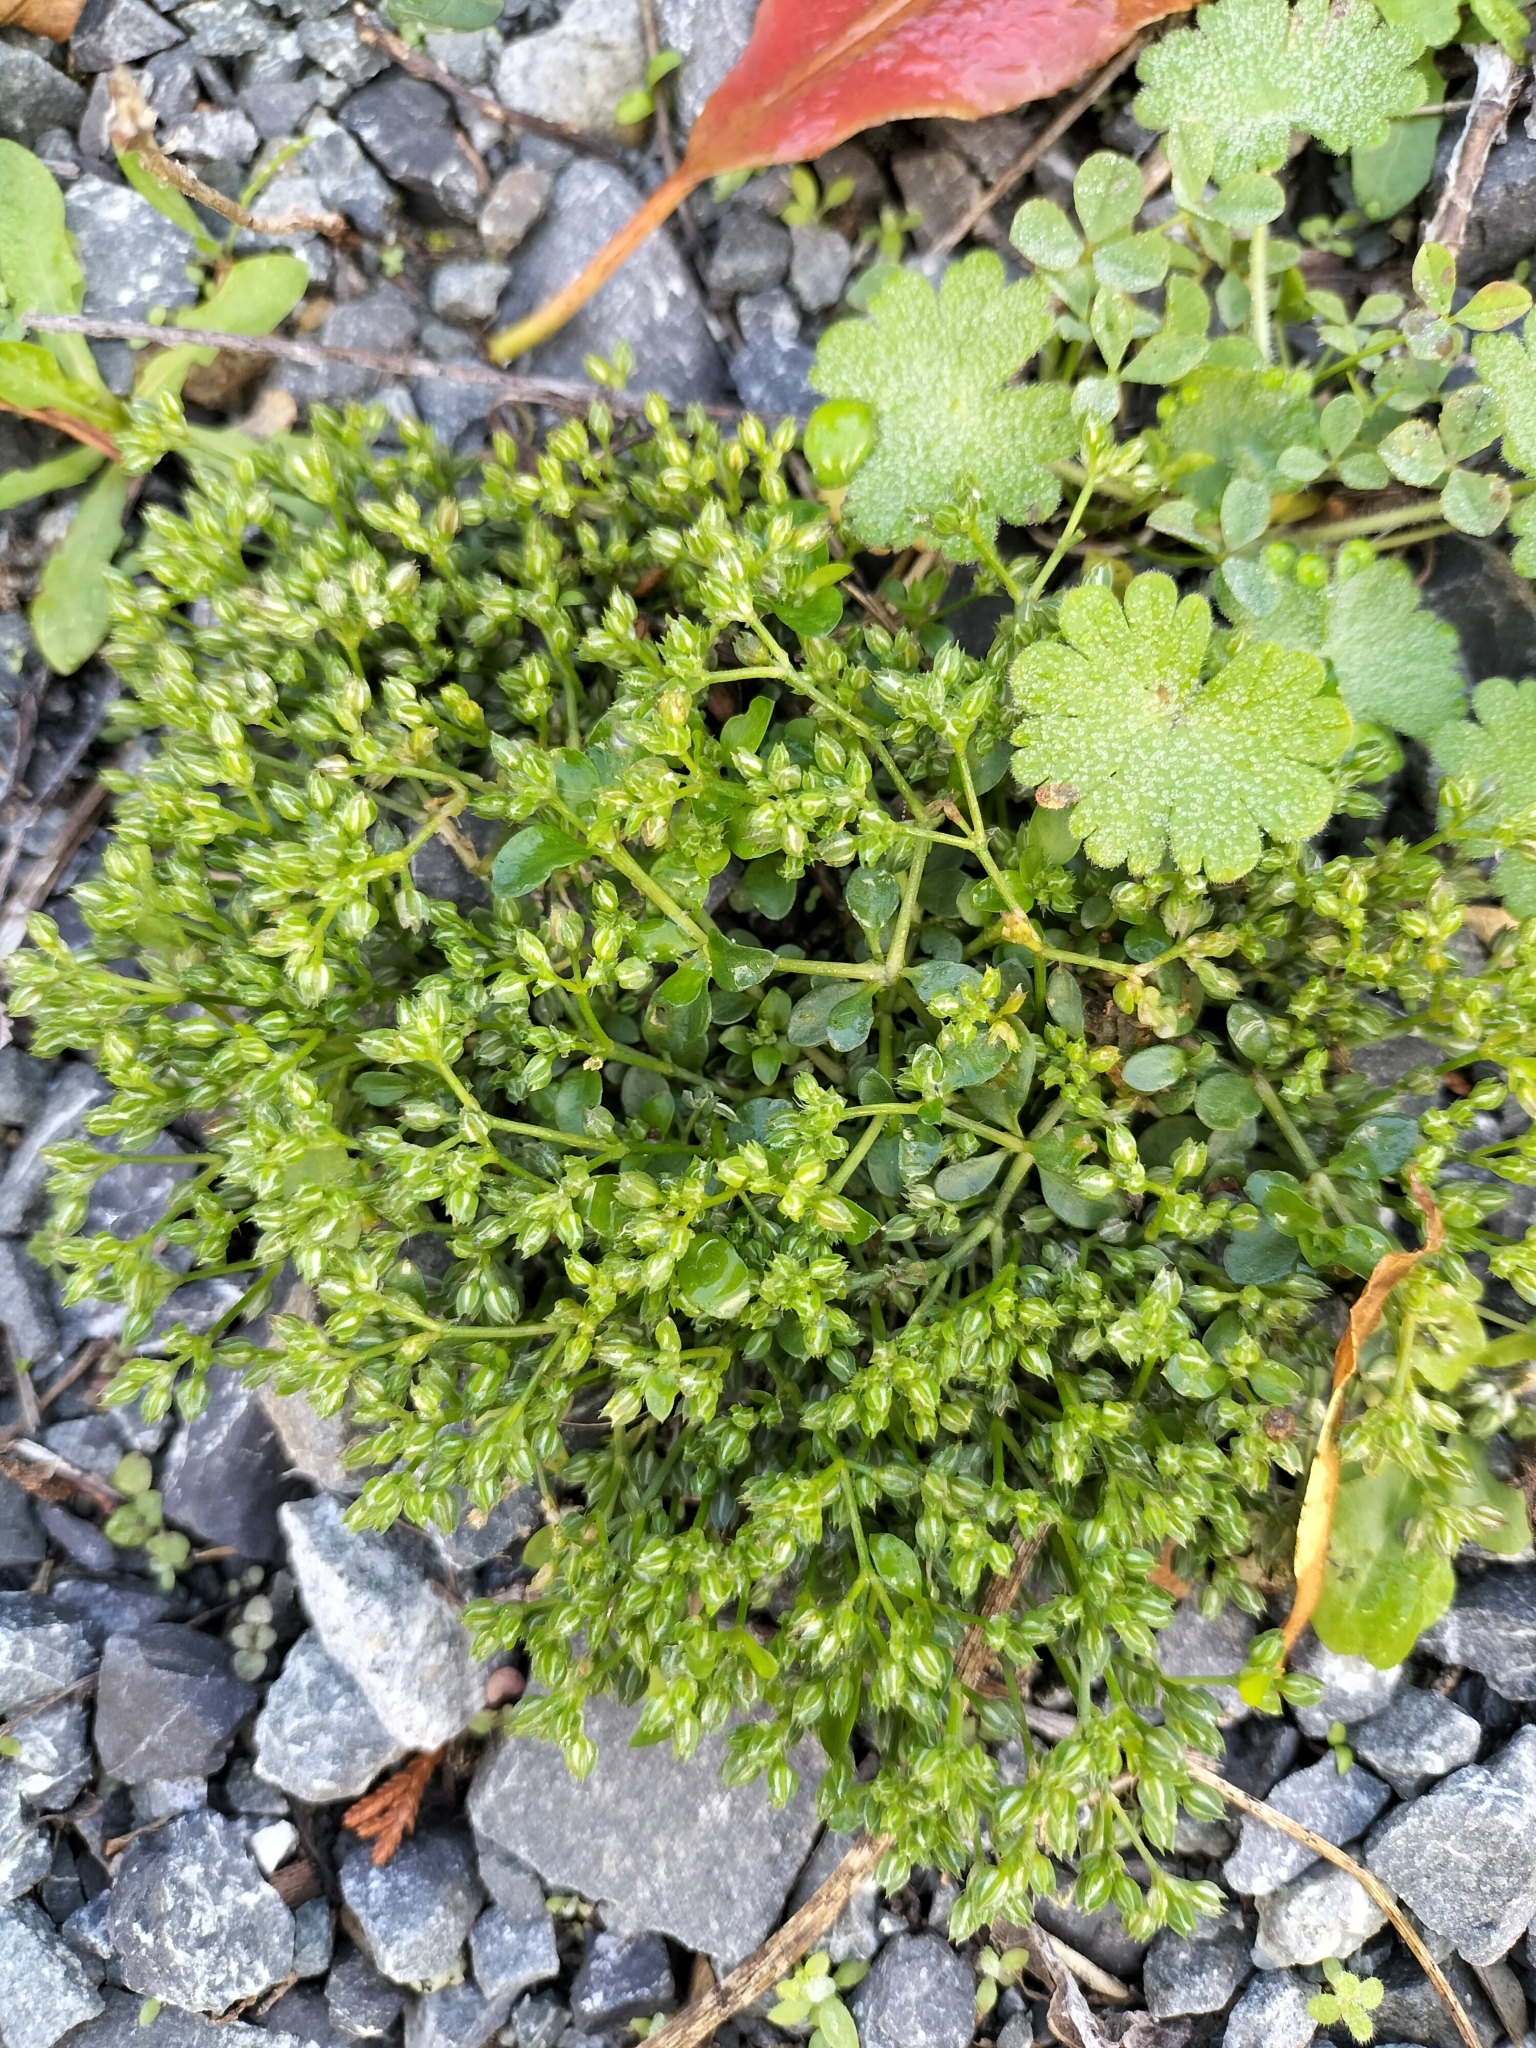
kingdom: Plantae
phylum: Tracheophyta
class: Magnoliopsida
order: Caryophyllales
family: Caryophyllaceae
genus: Polycarpon
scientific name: Polycarpon tetraphyllum
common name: Four-leaved all-seed
